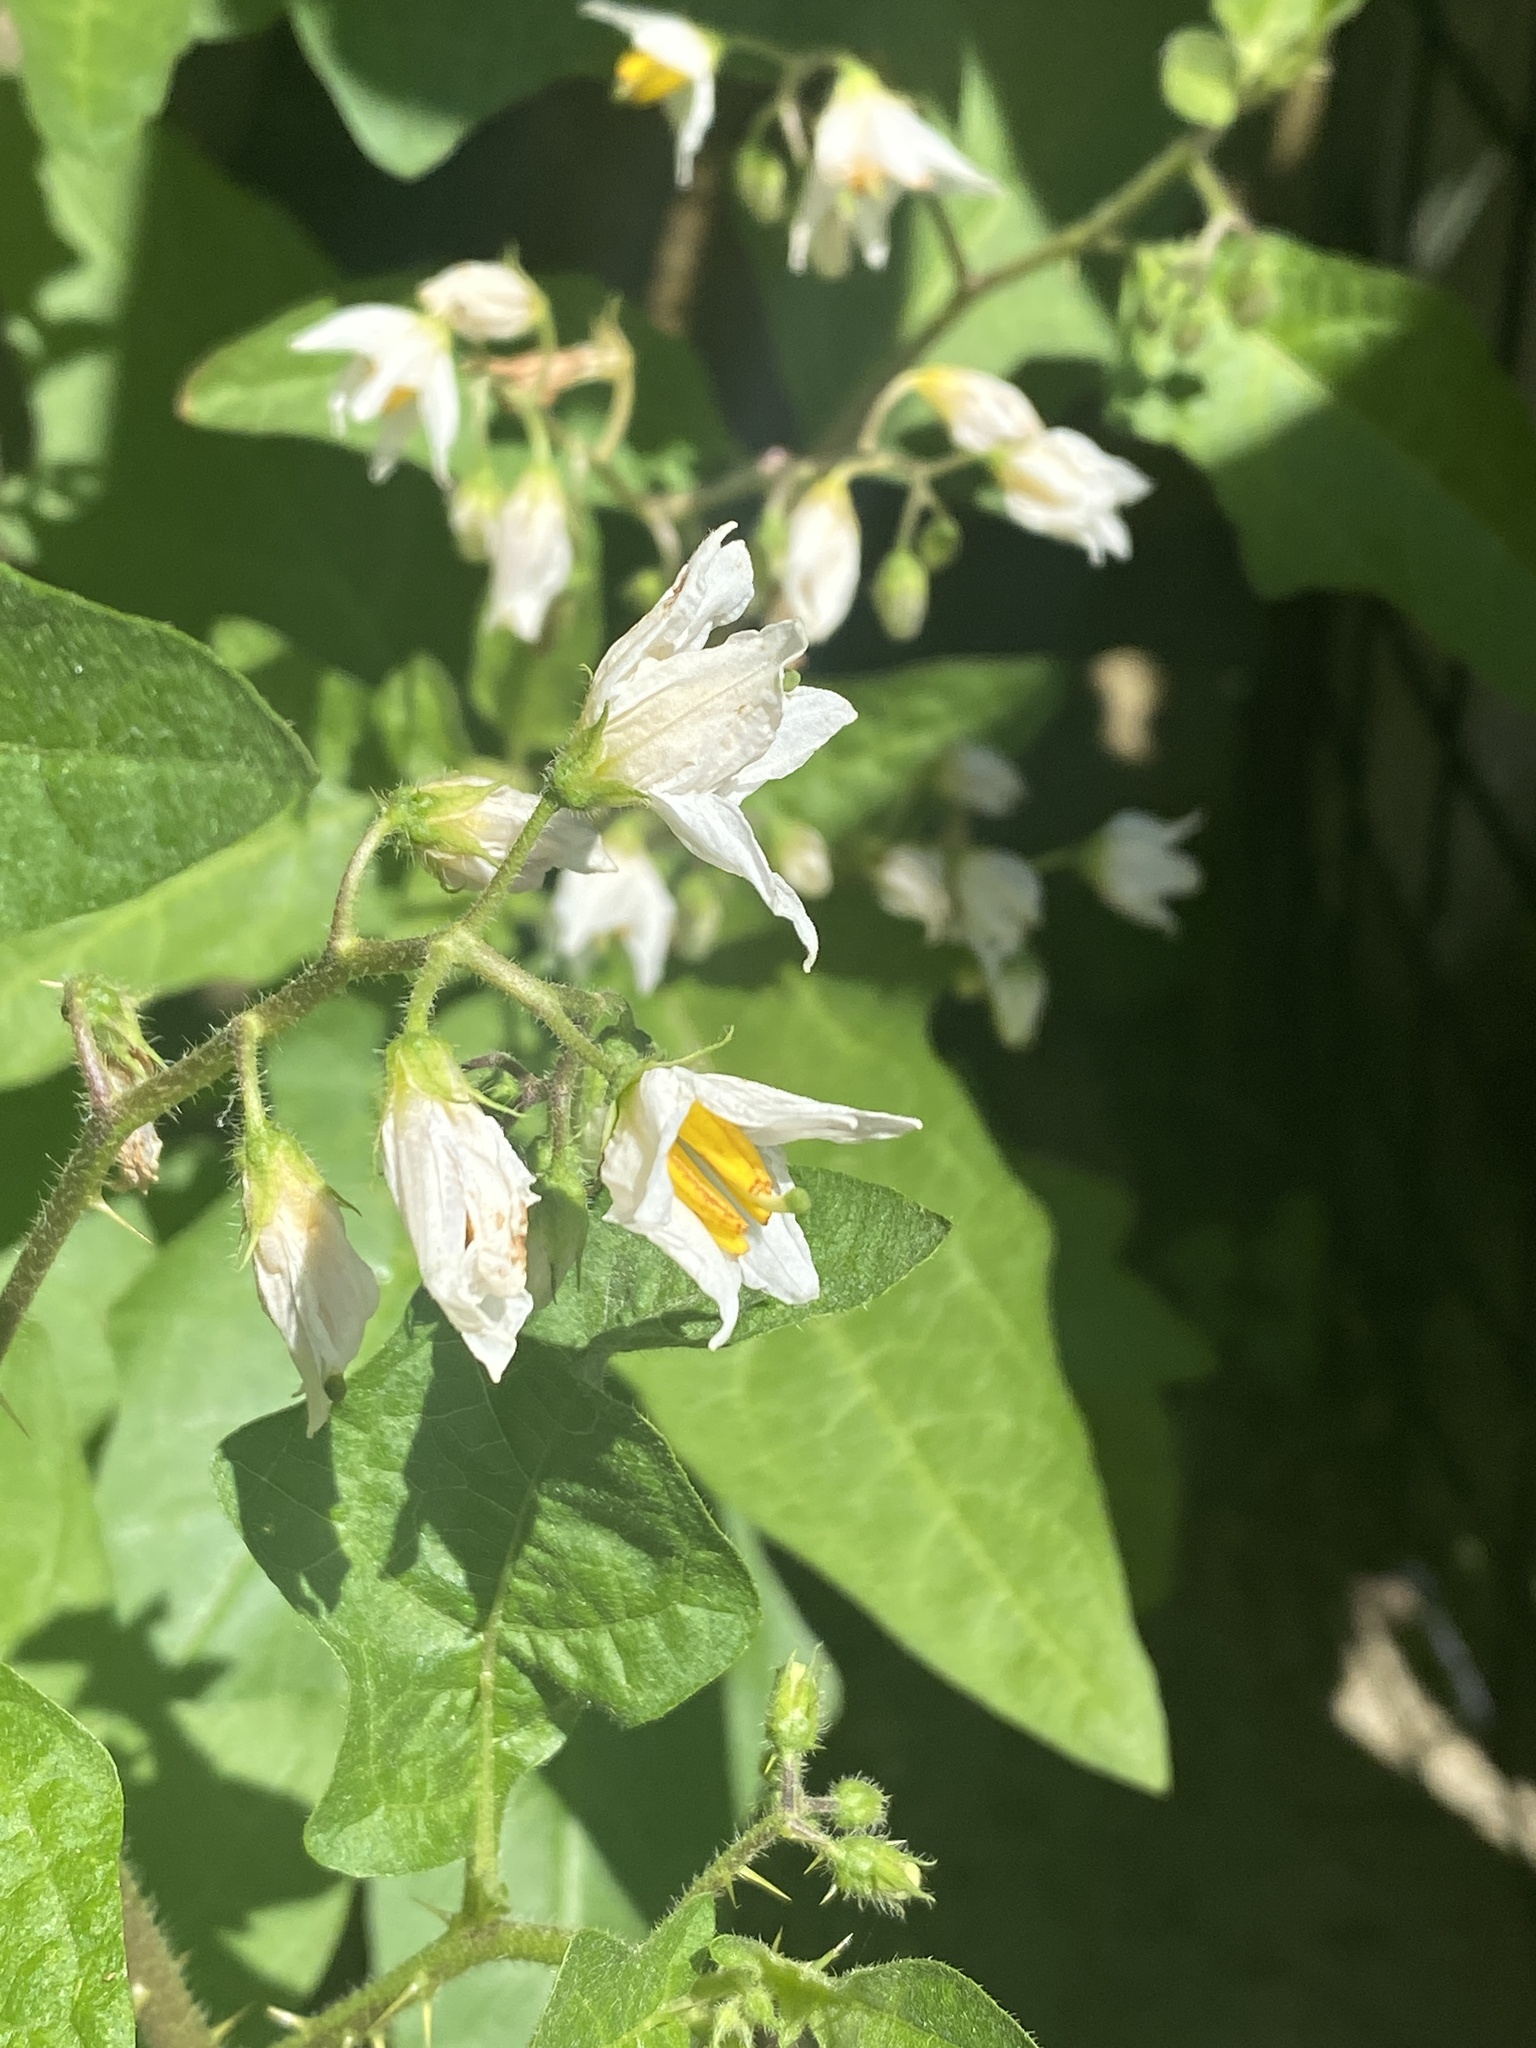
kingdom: Plantae
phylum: Tracheophyta
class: Magnoliopsida
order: Solanales
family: Solanaceae
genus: Solanum
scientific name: Solanum carolinense
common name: Horse-nettle
